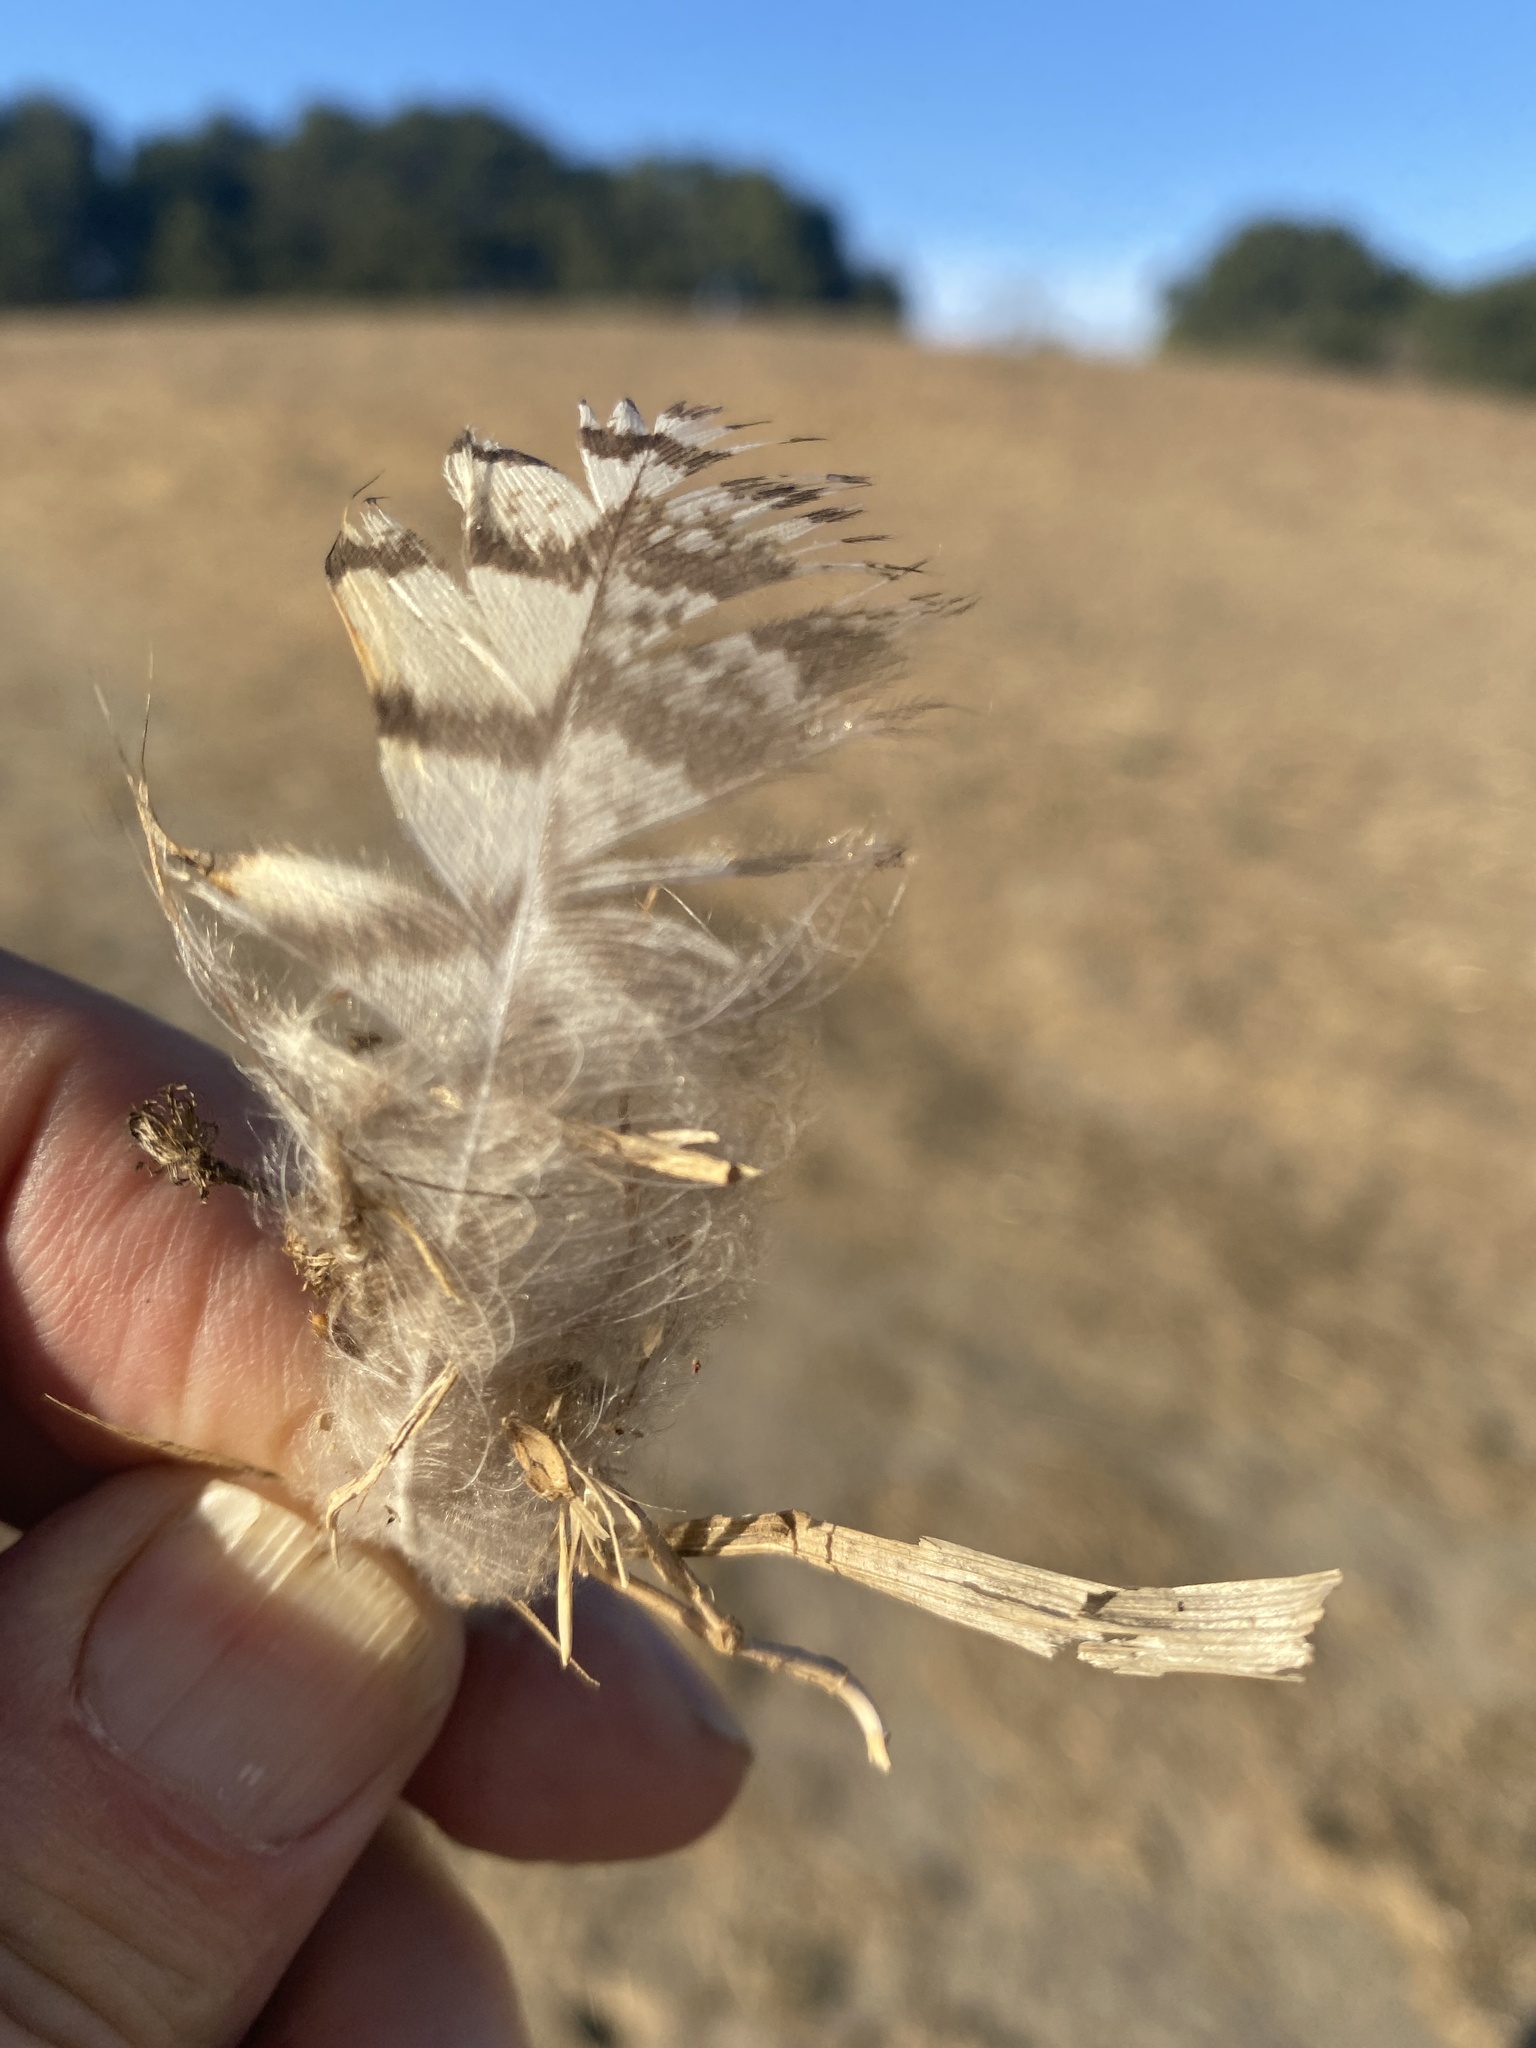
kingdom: Animalia
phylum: Chordata
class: Aves
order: Strigiformes
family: Strigidae
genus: Bubo
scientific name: Bubo virginianus
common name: Great horned owl
